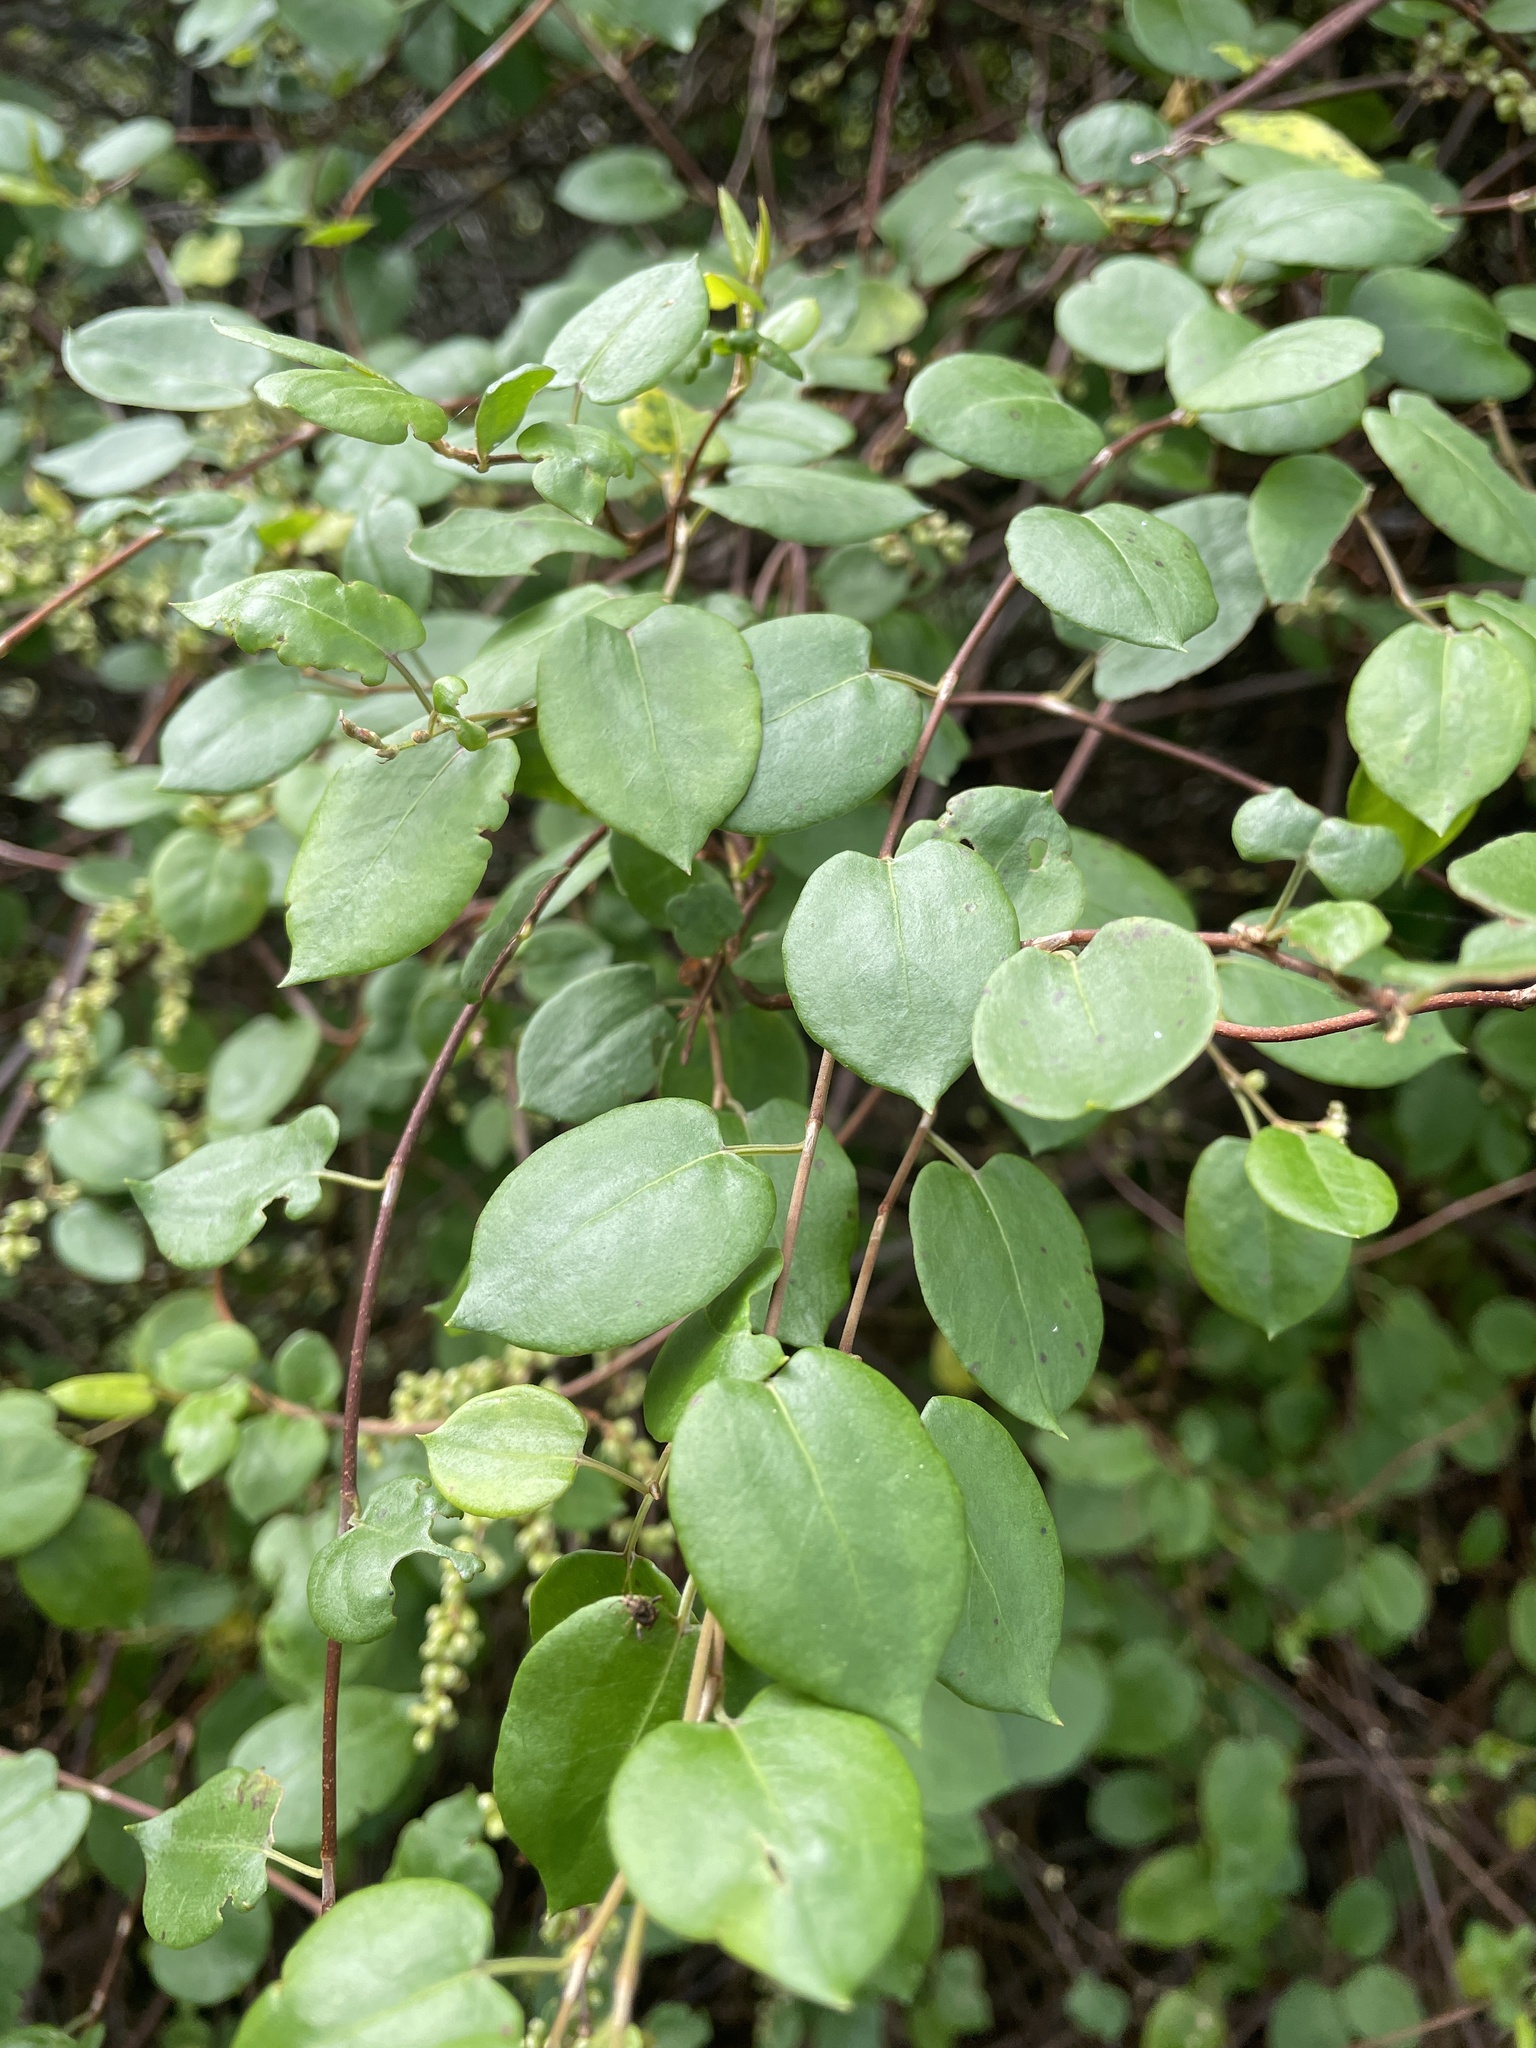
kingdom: Plantae
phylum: Tracheophyta
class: Magnoliopsida
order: Caryophyllales
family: Polygonaceae
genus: Muehlenbeckia
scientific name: Muehlenbeckia australis
